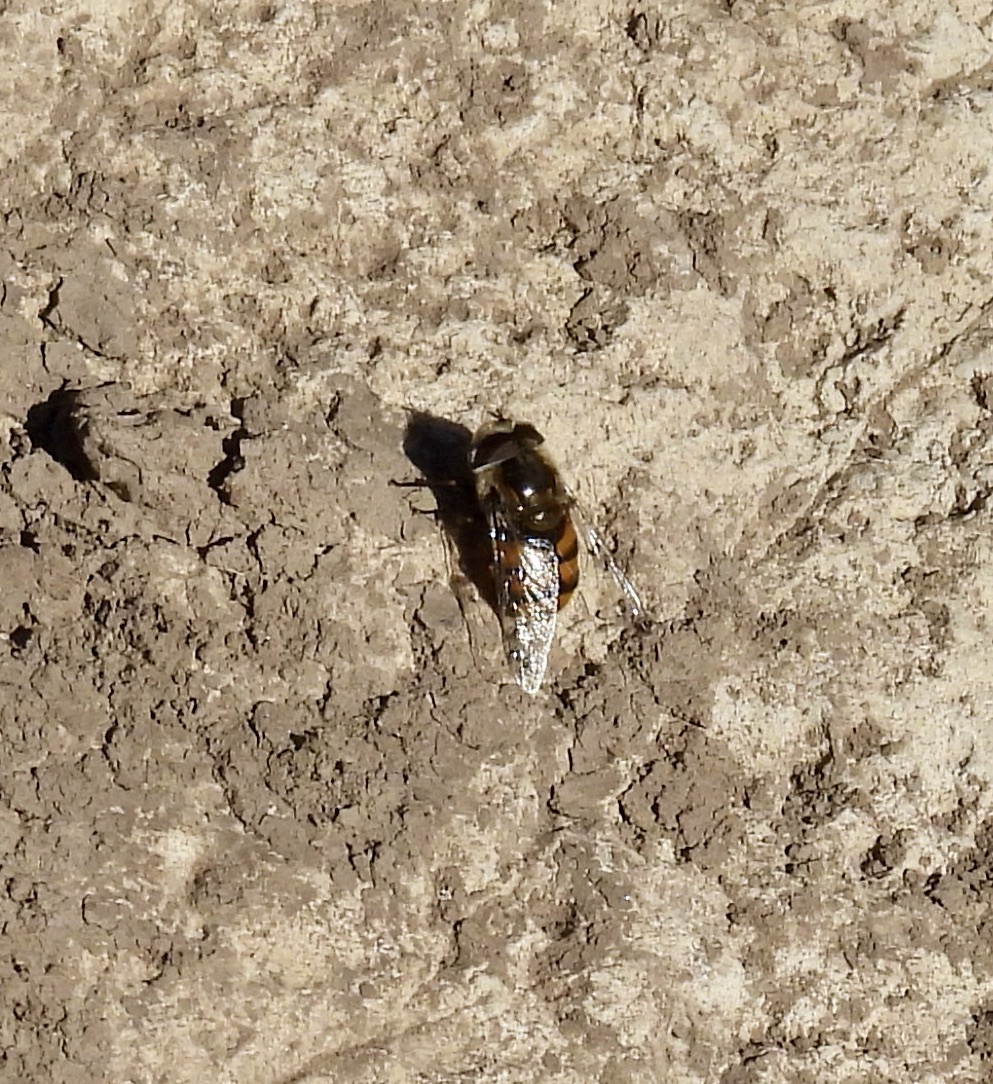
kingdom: Animalia
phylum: Arthropoda
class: Insecta
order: Diptera
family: Syrphidae
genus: Copestylum
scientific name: Copestylum avidum
